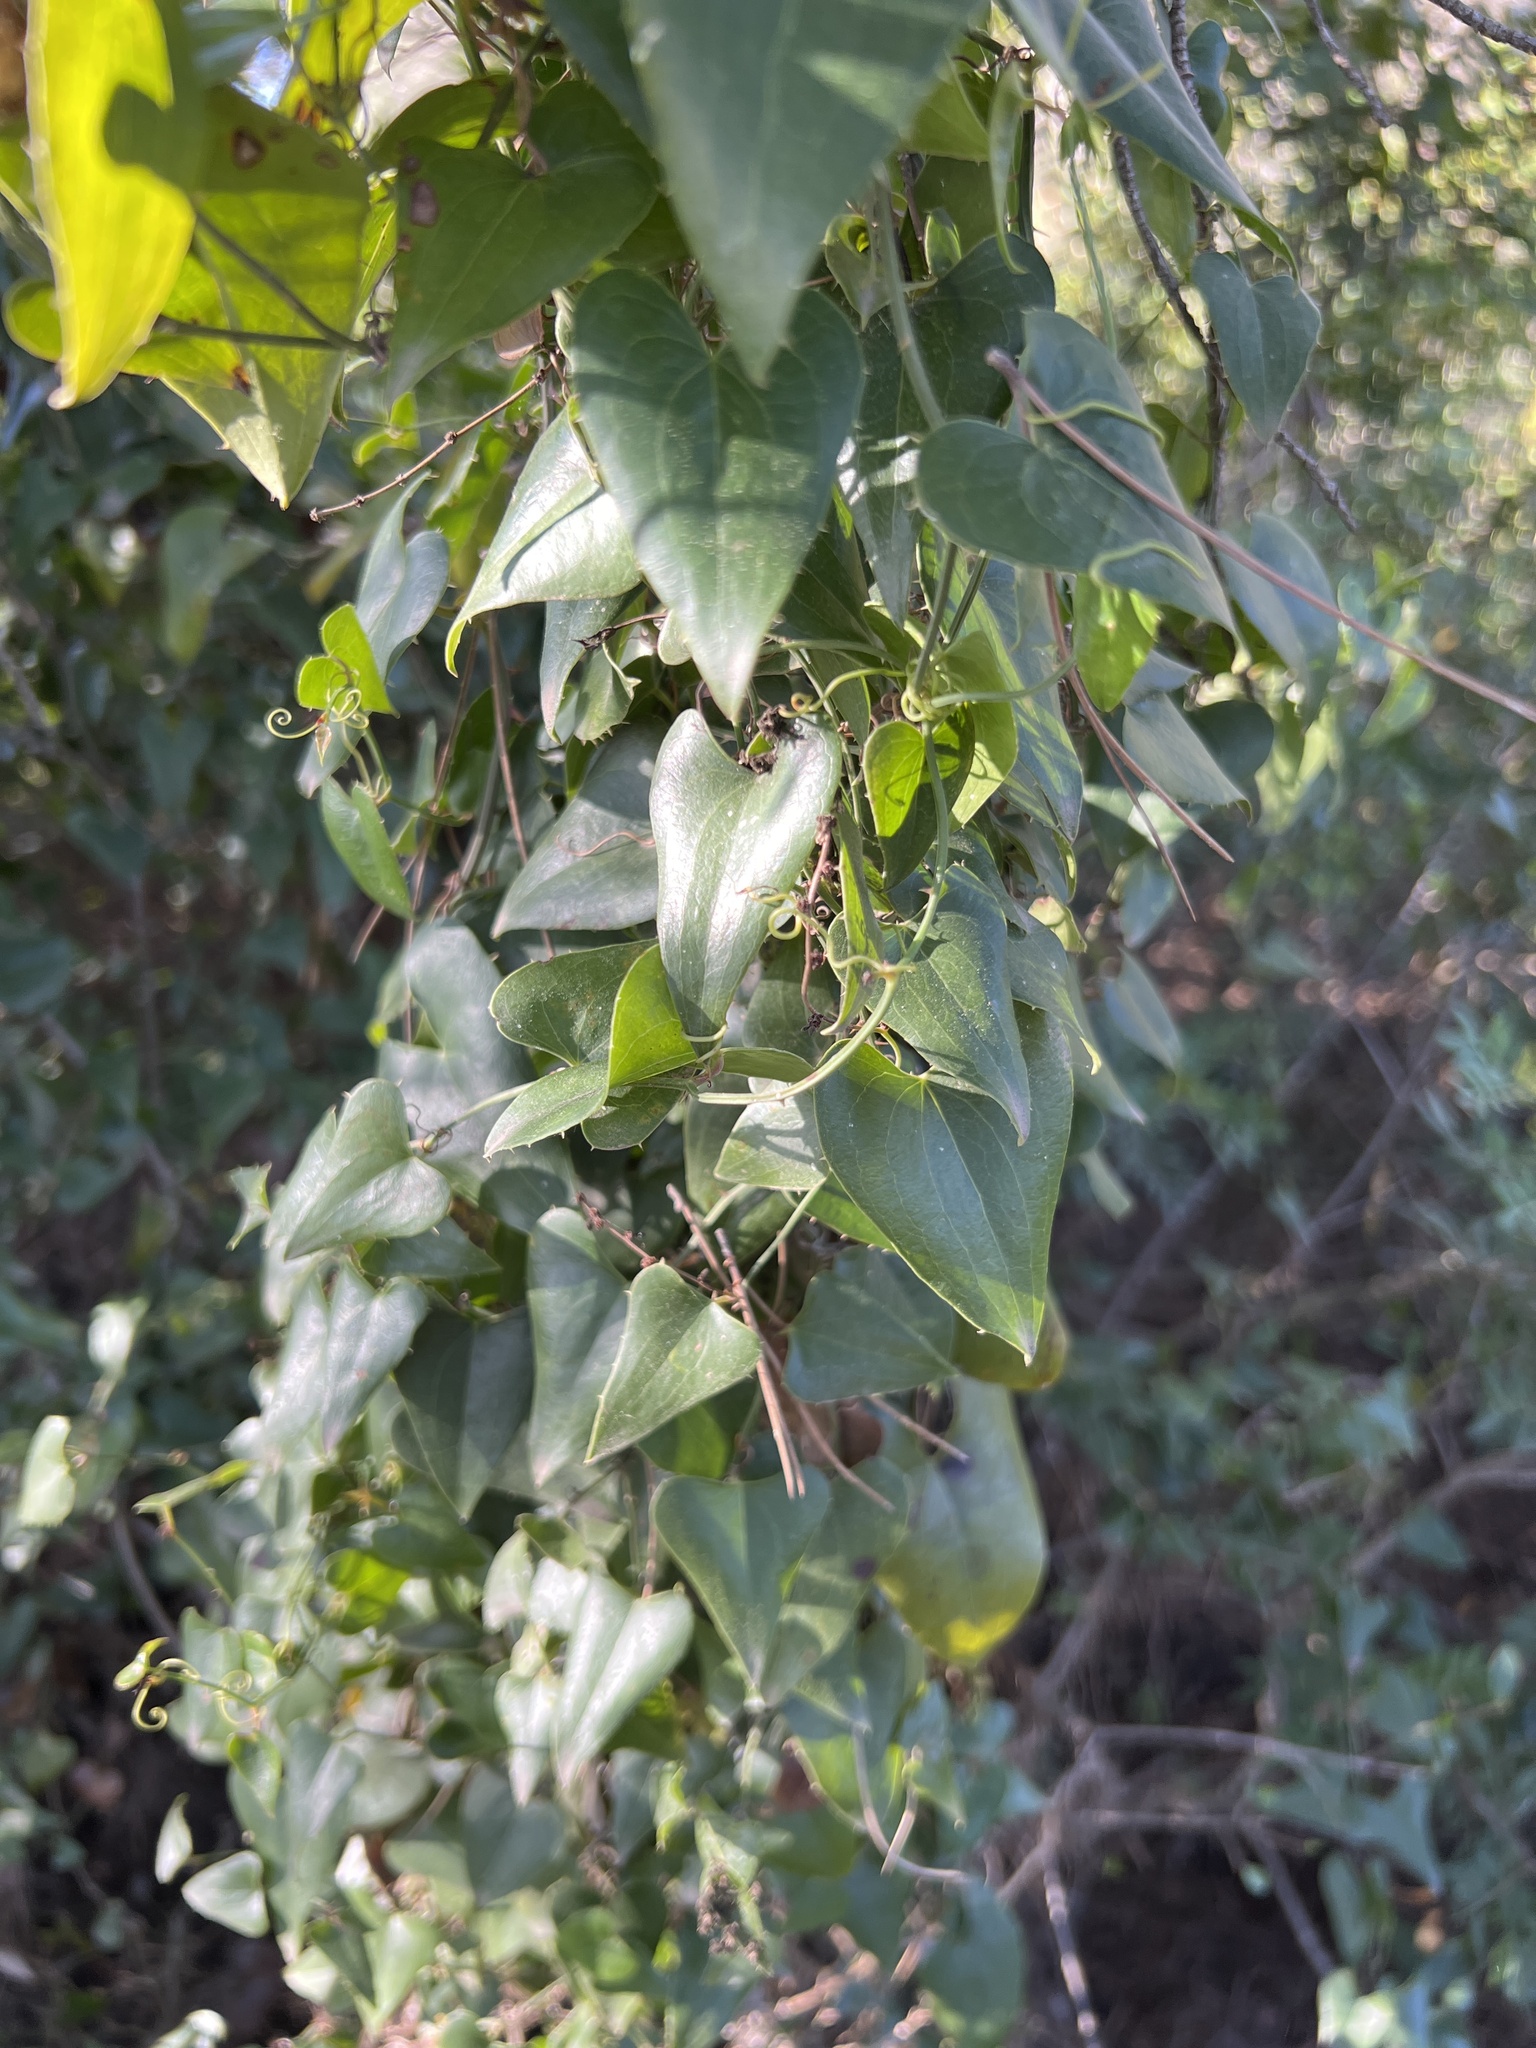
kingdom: Plantae
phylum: Tracheophyta
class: Liliopsida
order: Liliales
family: Smilacaceae
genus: Smilax
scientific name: Smilax aspera
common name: Common smilax
